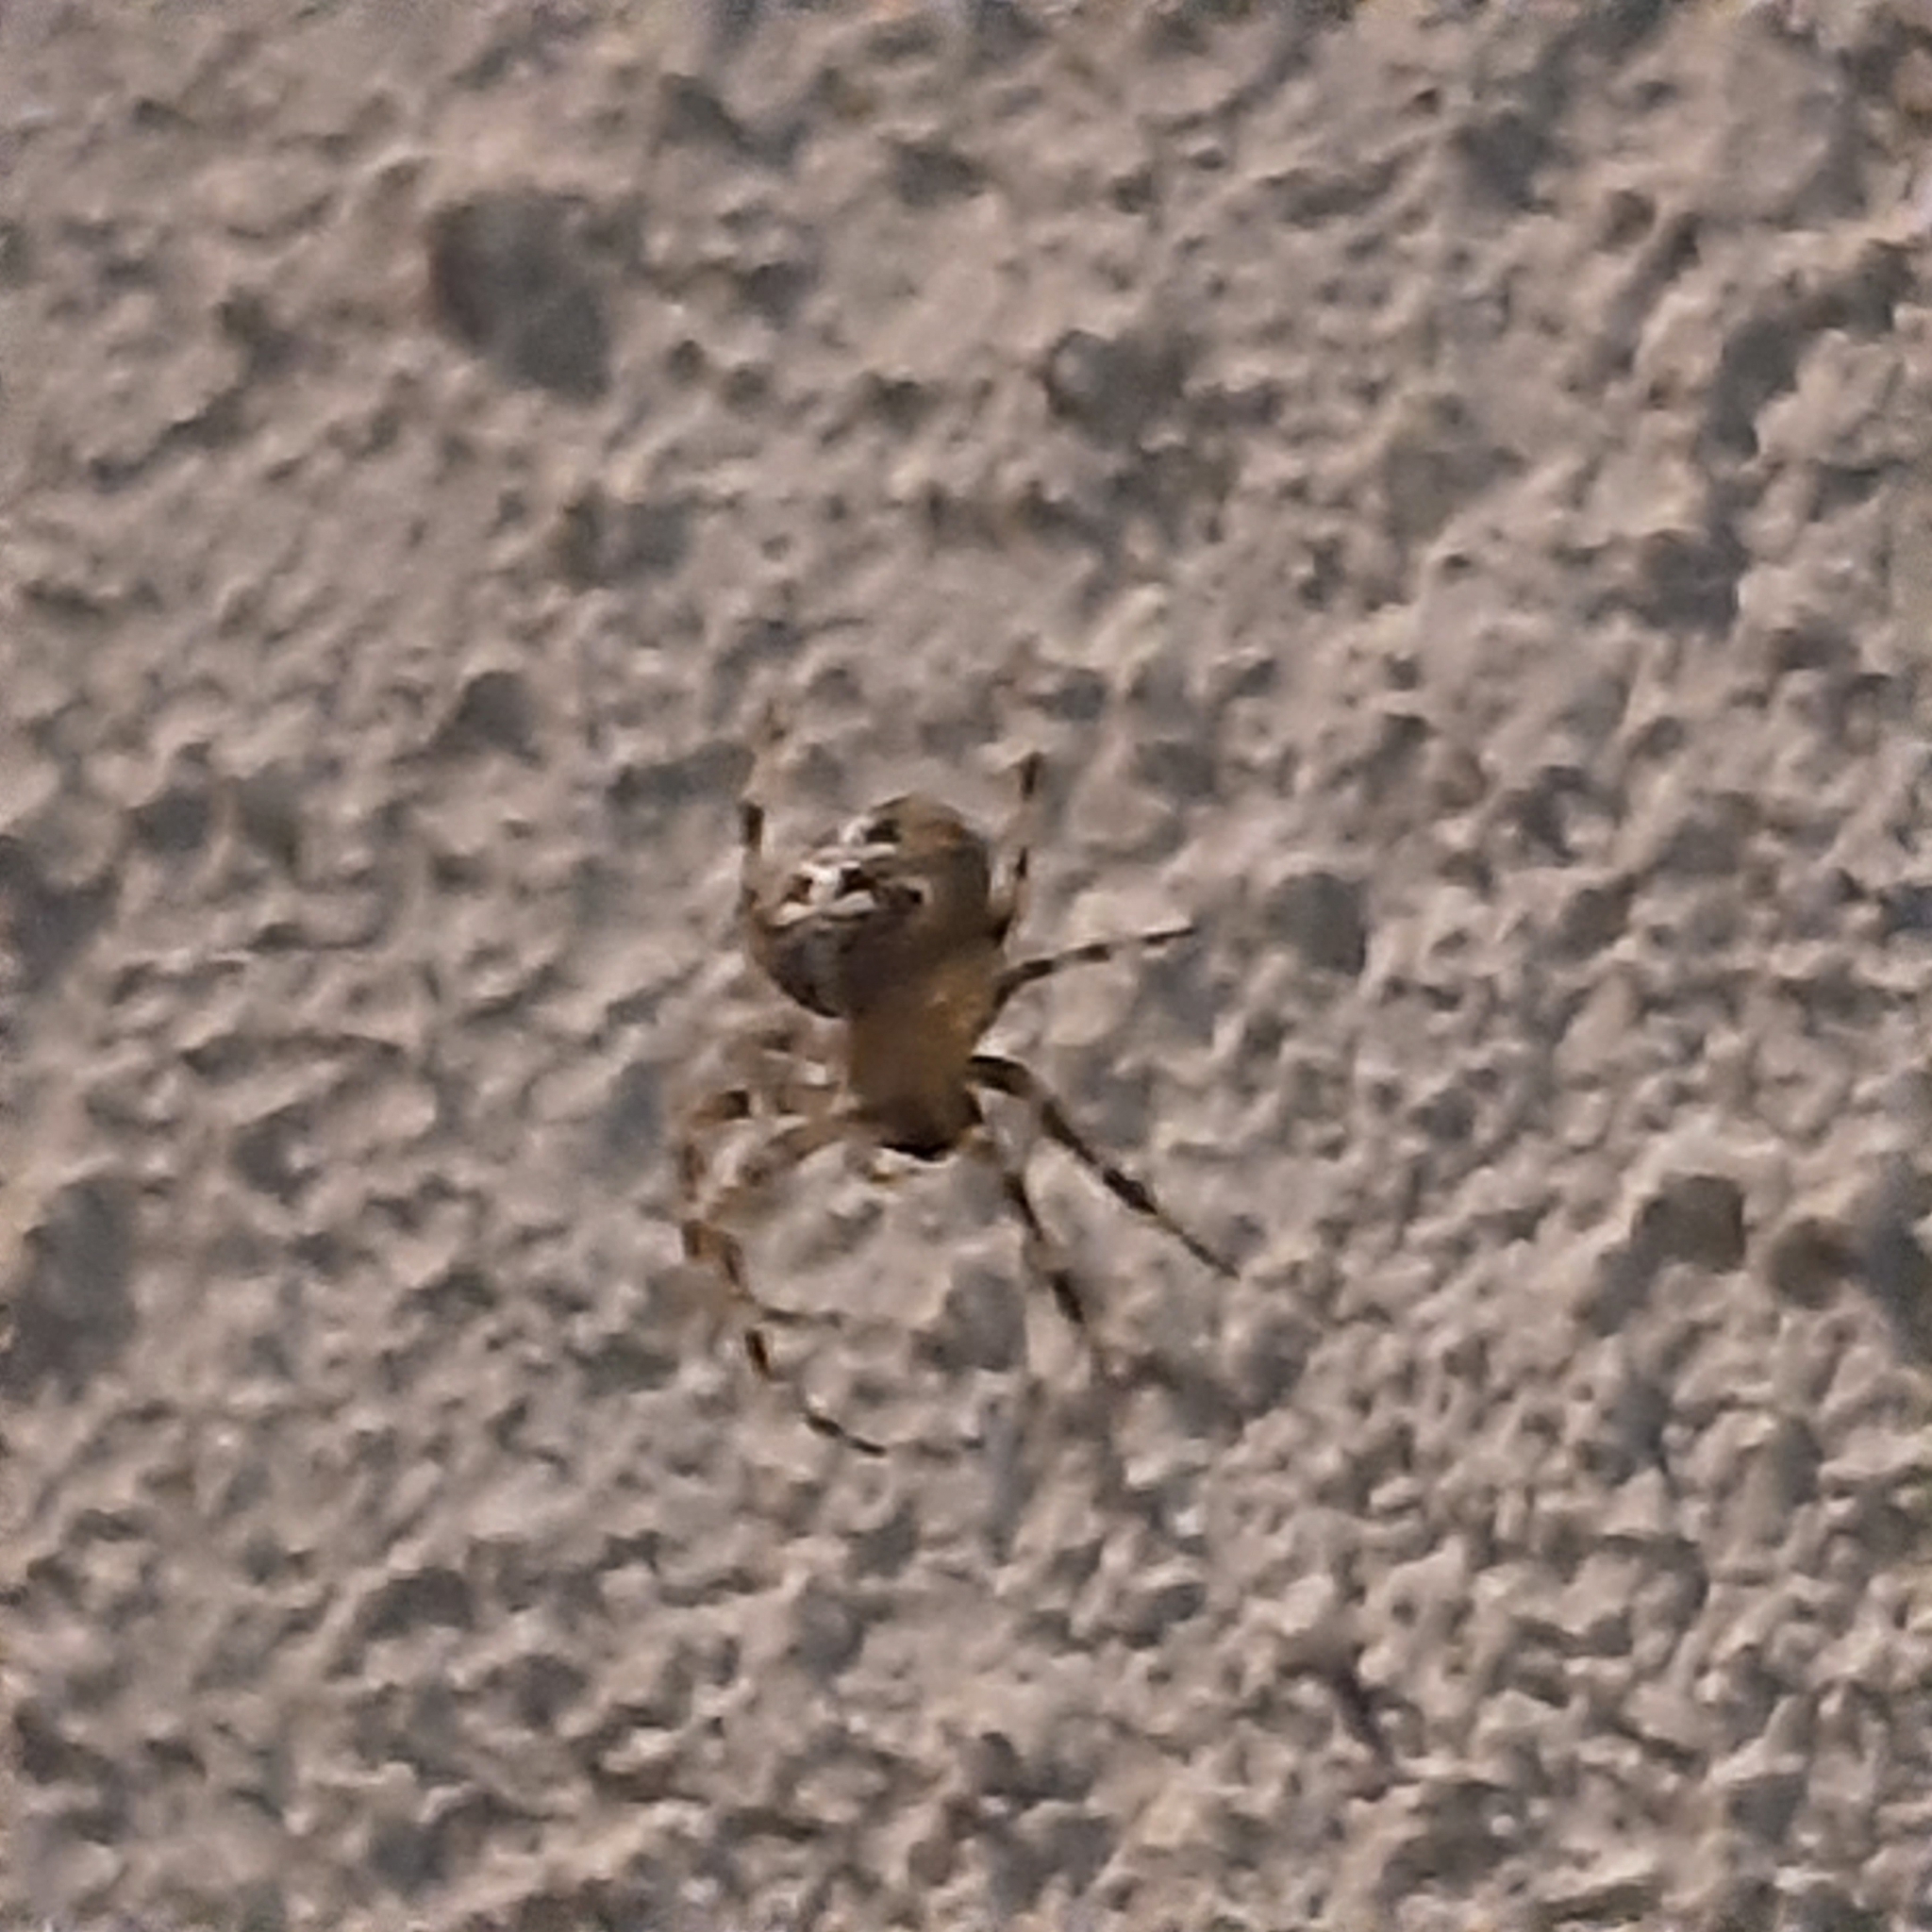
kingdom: Animalia
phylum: Arthropoda
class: Arachnida
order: Araneae
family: Araneidae
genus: Araneus
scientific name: Araneus diadematus
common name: Cross orbweaver
